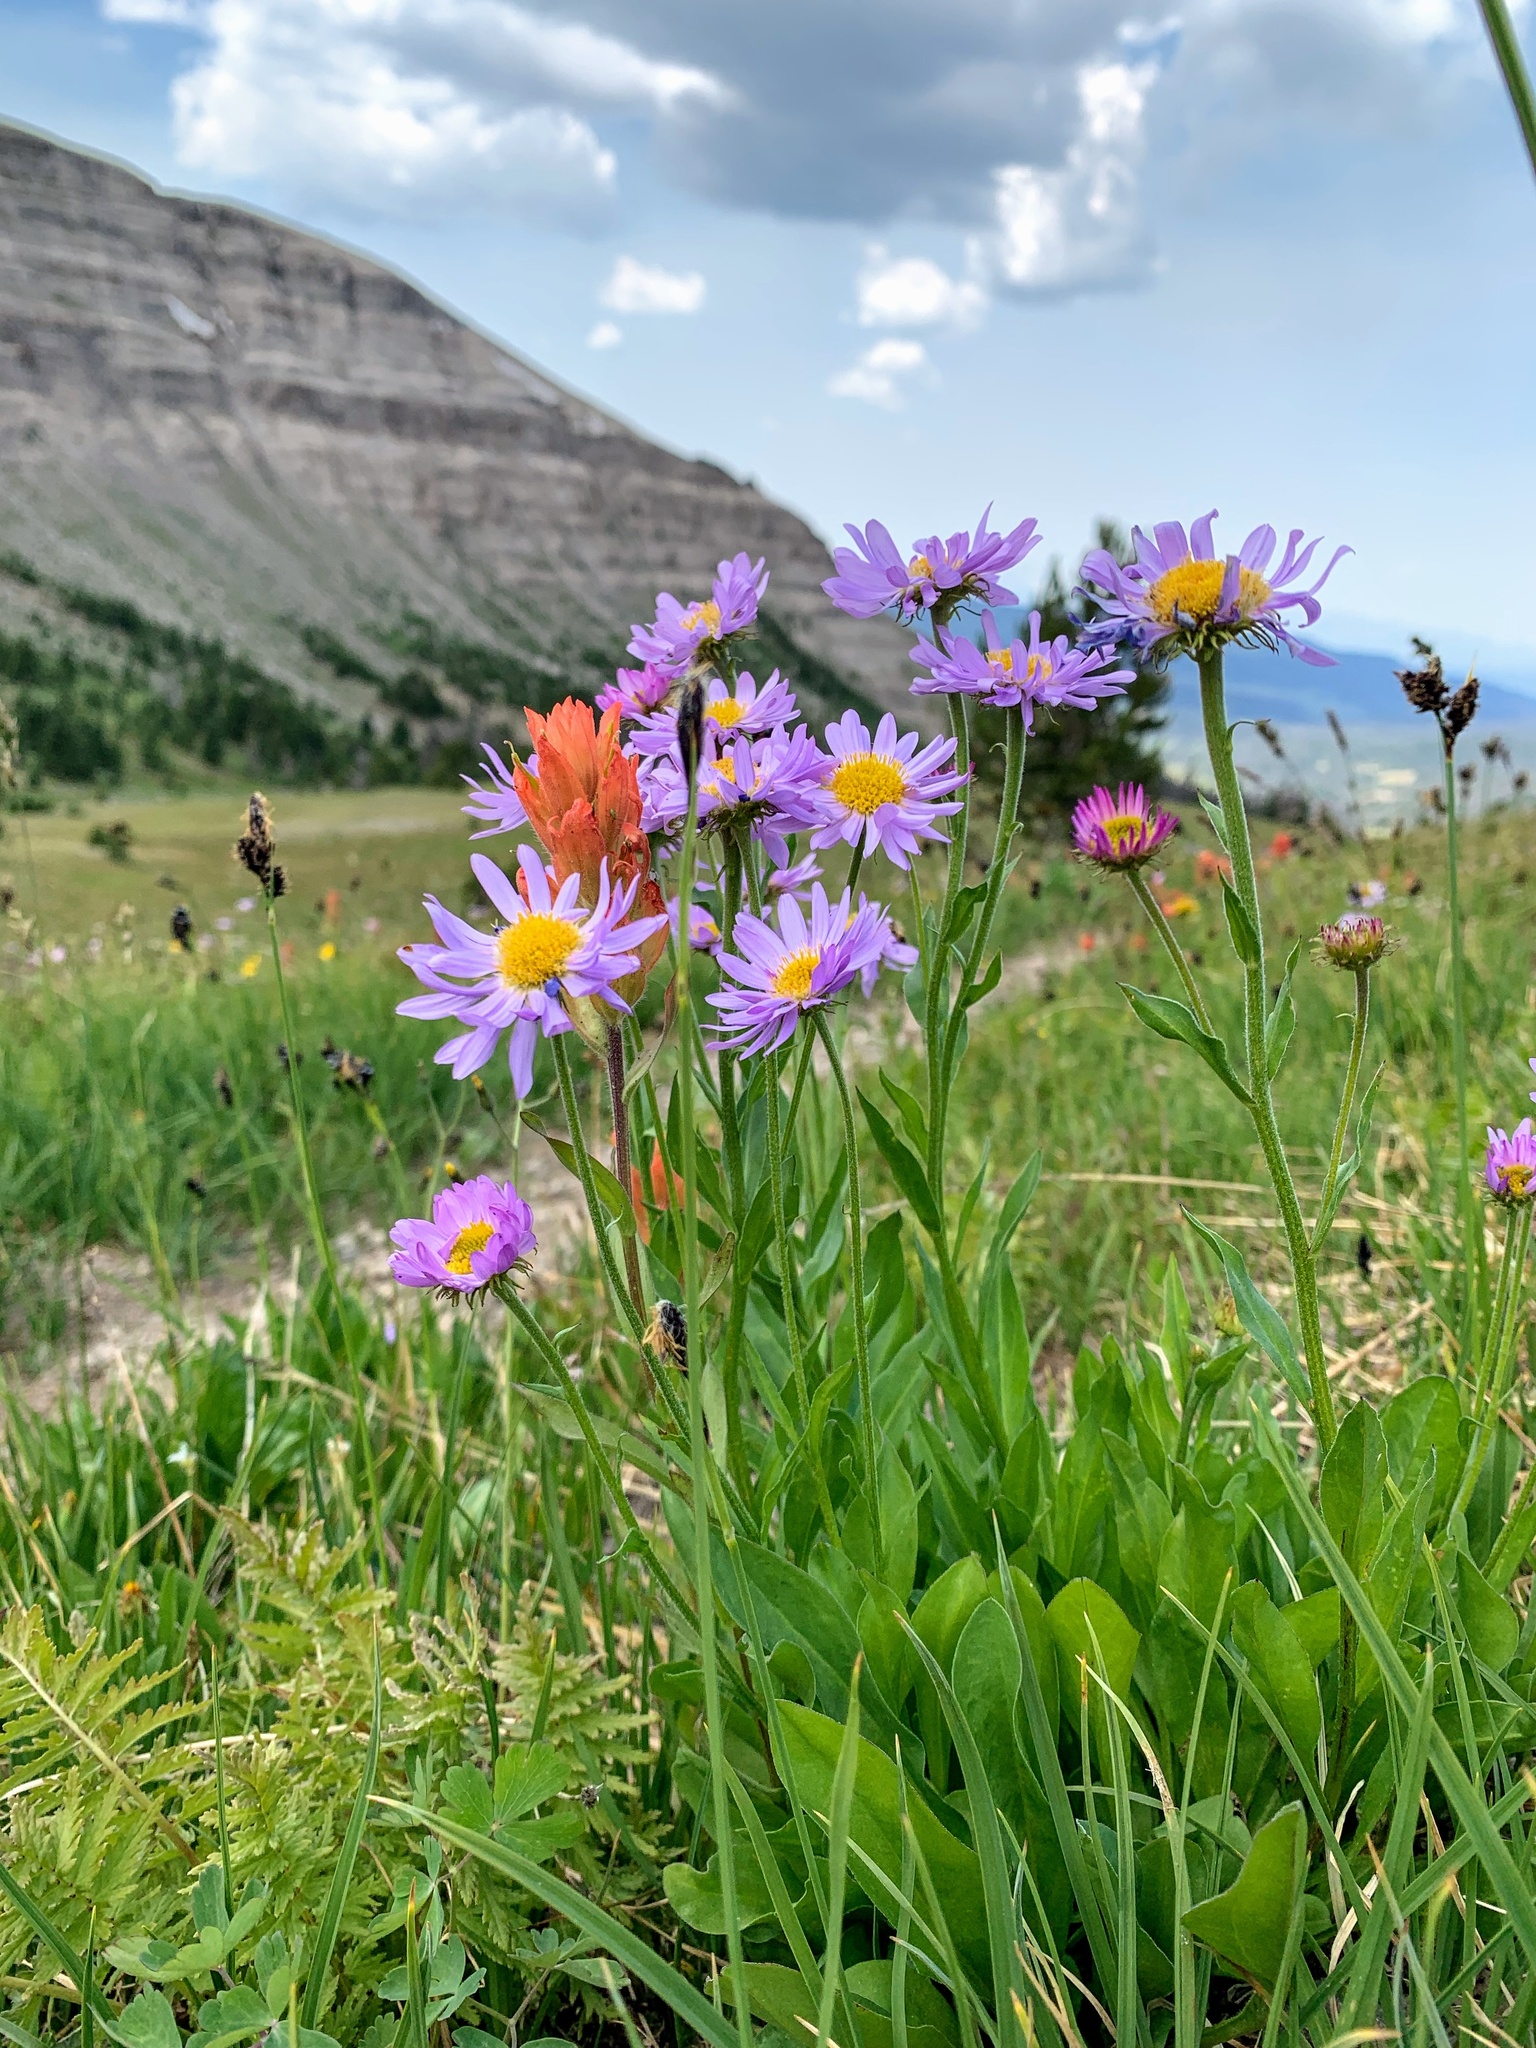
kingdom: Plantae
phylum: Tracheophyta
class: Magnoliopsida
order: Asterales
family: Asteraceae
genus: Erigeron
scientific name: Erigeron glacialis
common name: Subalpine fleabane
